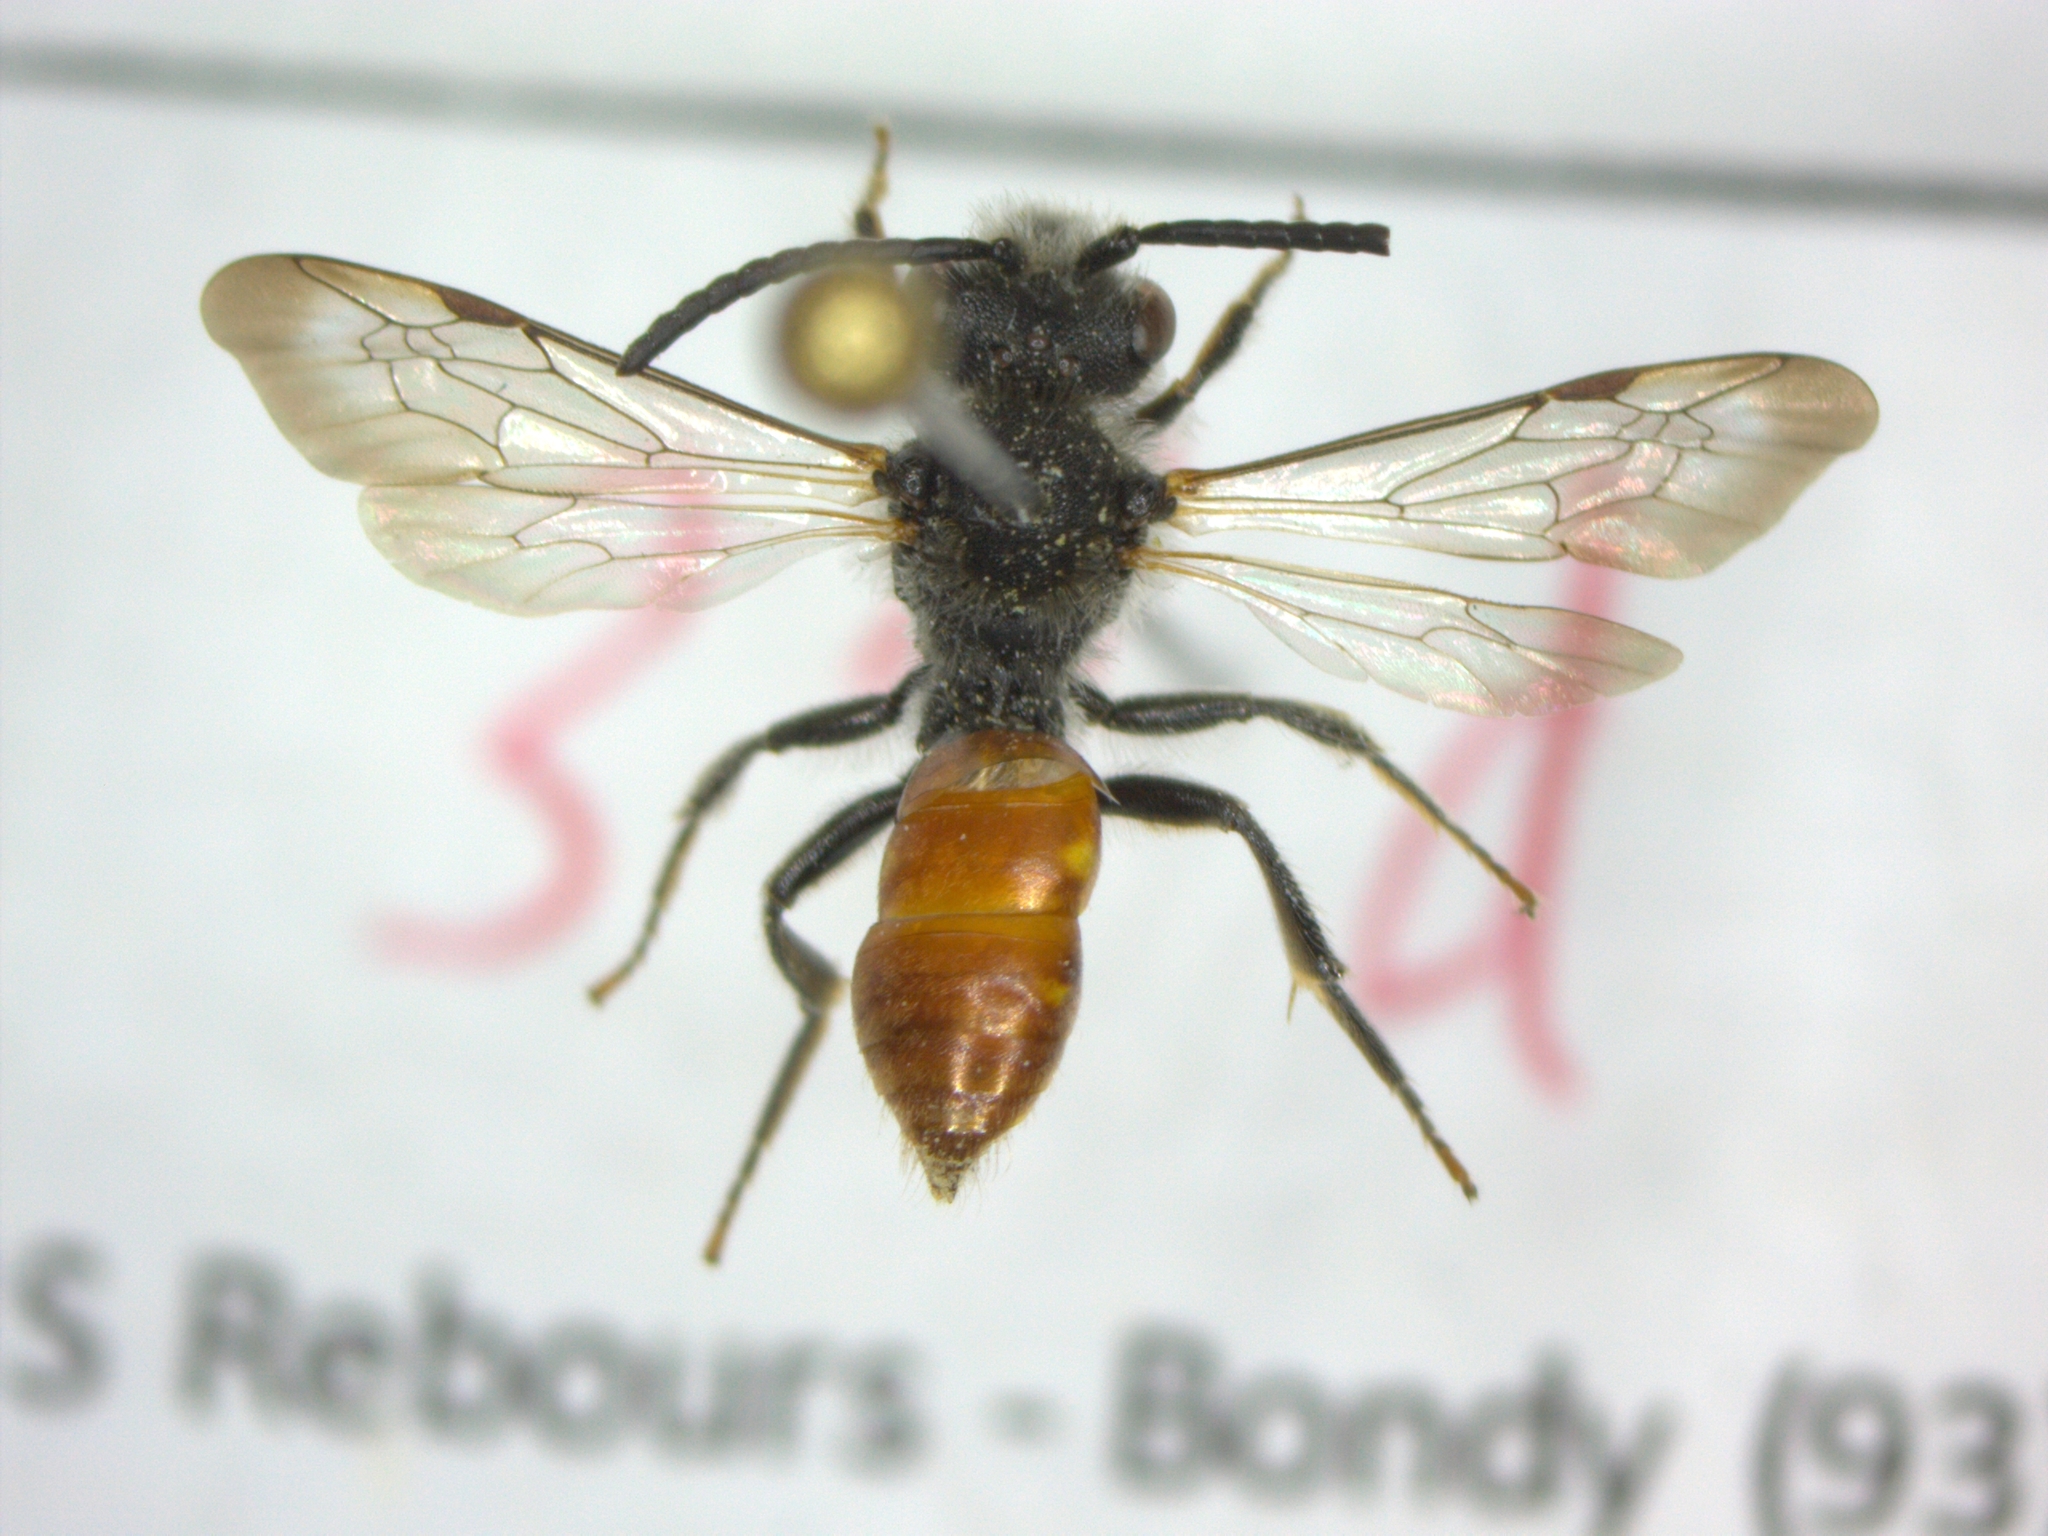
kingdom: Animalia
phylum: Arthropoda
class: Insecta
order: Hymenoptera
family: Apidae
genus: Nomada
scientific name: Nomada fabriciana
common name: Fabricius' nomad bee
